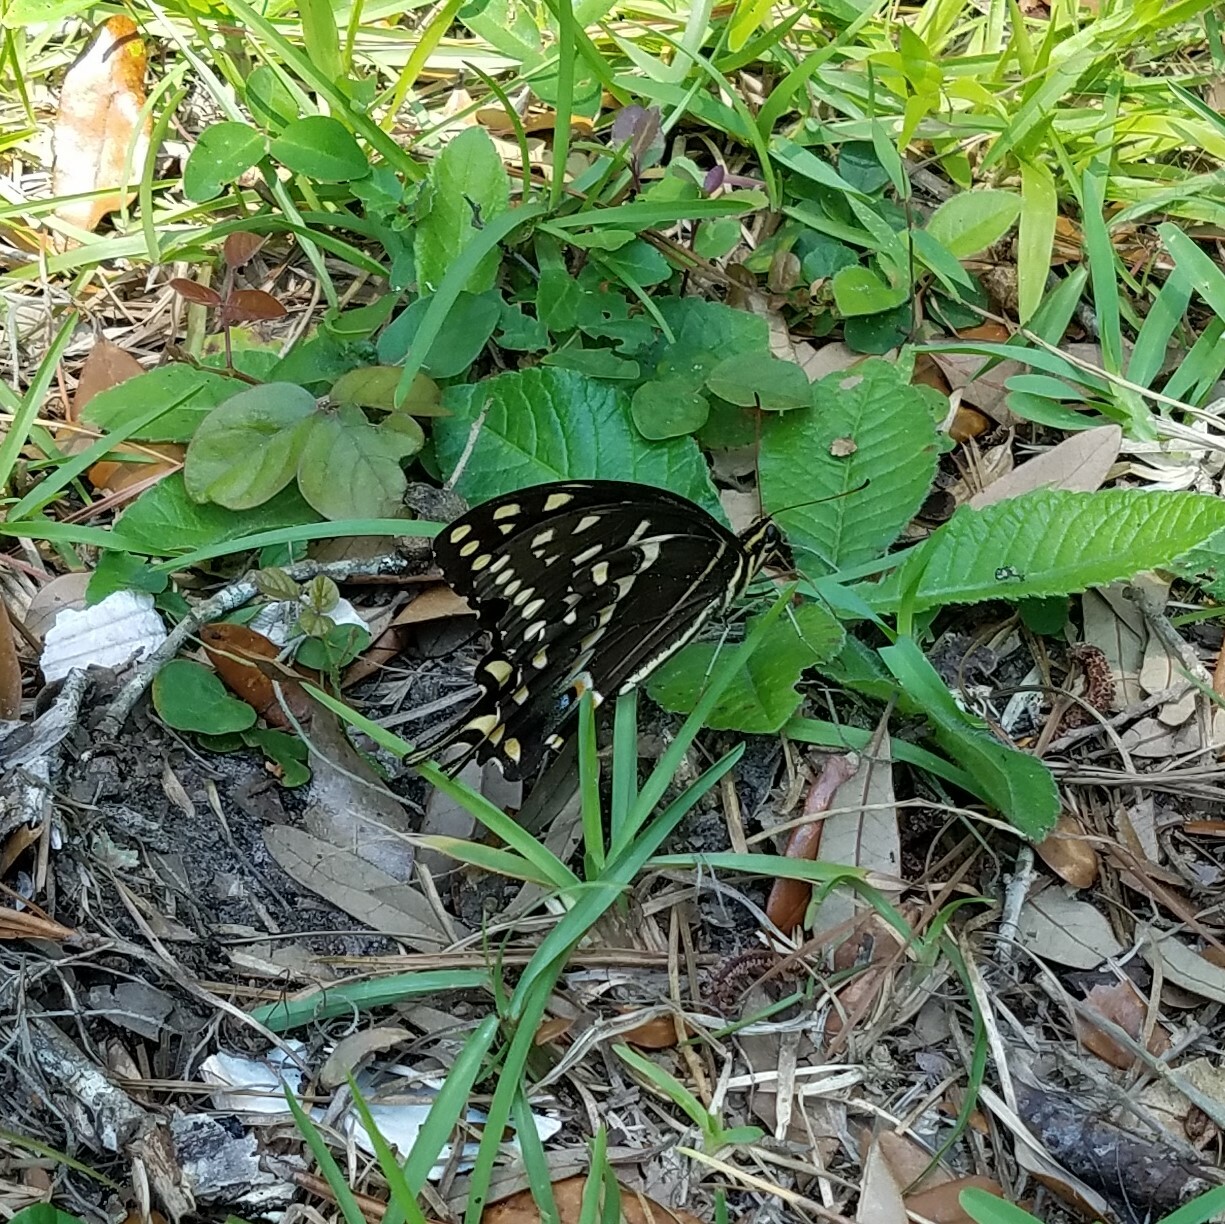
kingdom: Animalia
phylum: Arthropoda
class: Insecta
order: Lepidoptera
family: Papilionidae
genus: Papilio
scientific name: Papilio palamedes
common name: Palamedes swallowtail
